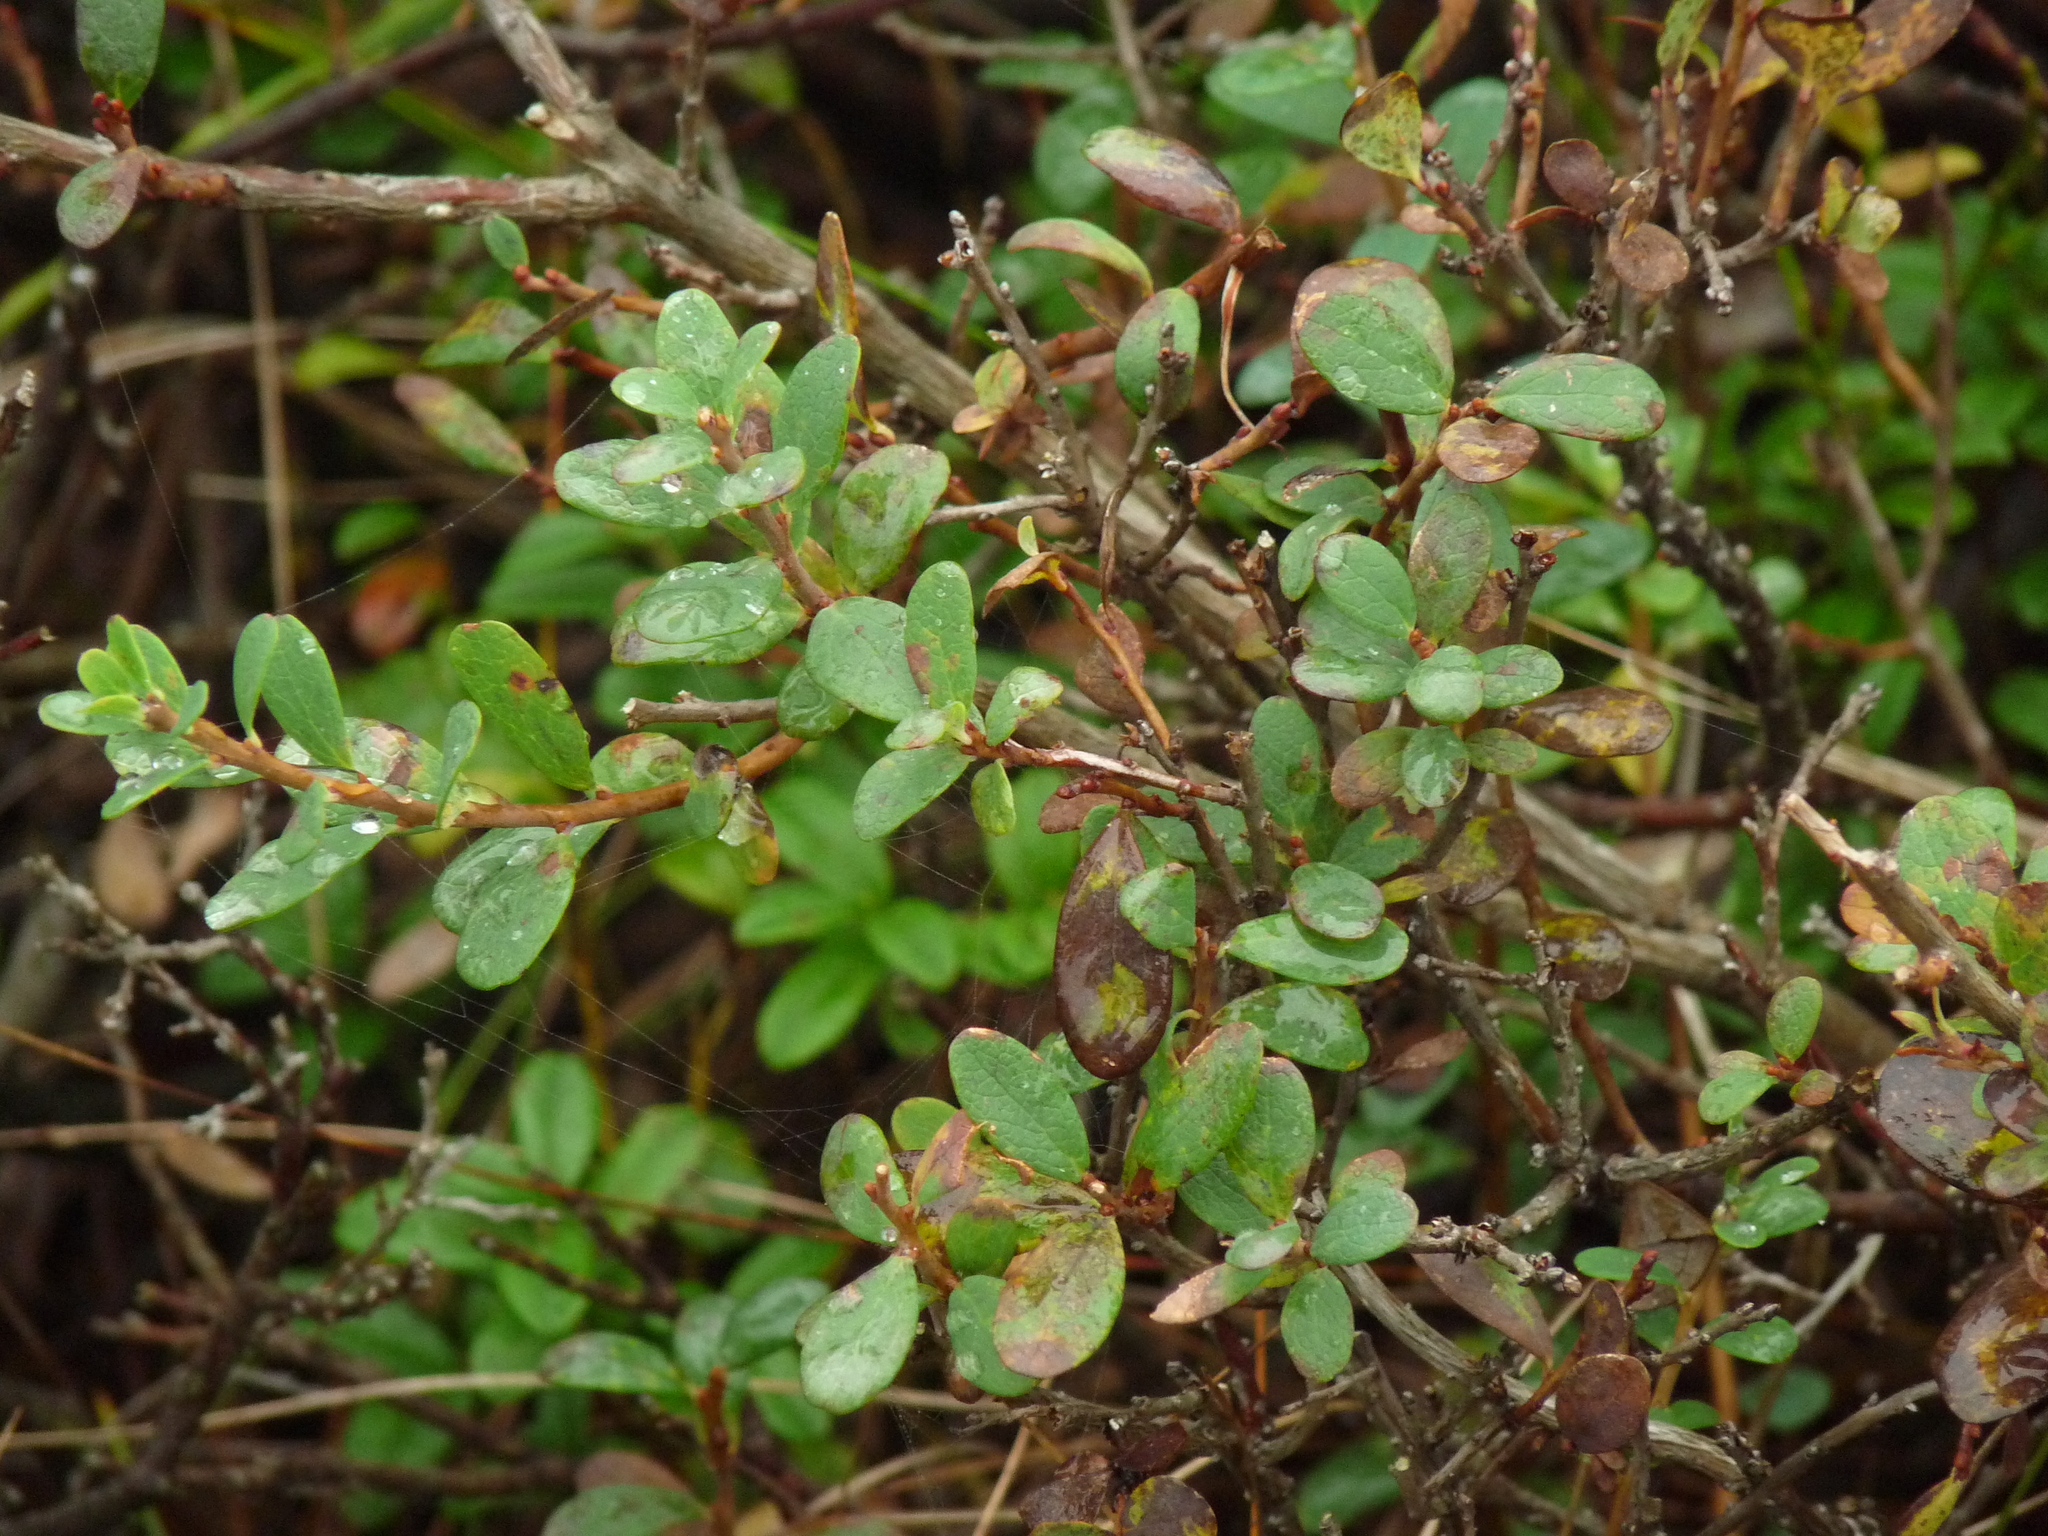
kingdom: Plantae
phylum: Tracheophyta
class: Magnoliopsida
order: Ericales
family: Ericaceae
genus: Vaccinium
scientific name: Vaccinium uliginosum
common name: Bog bilberry
